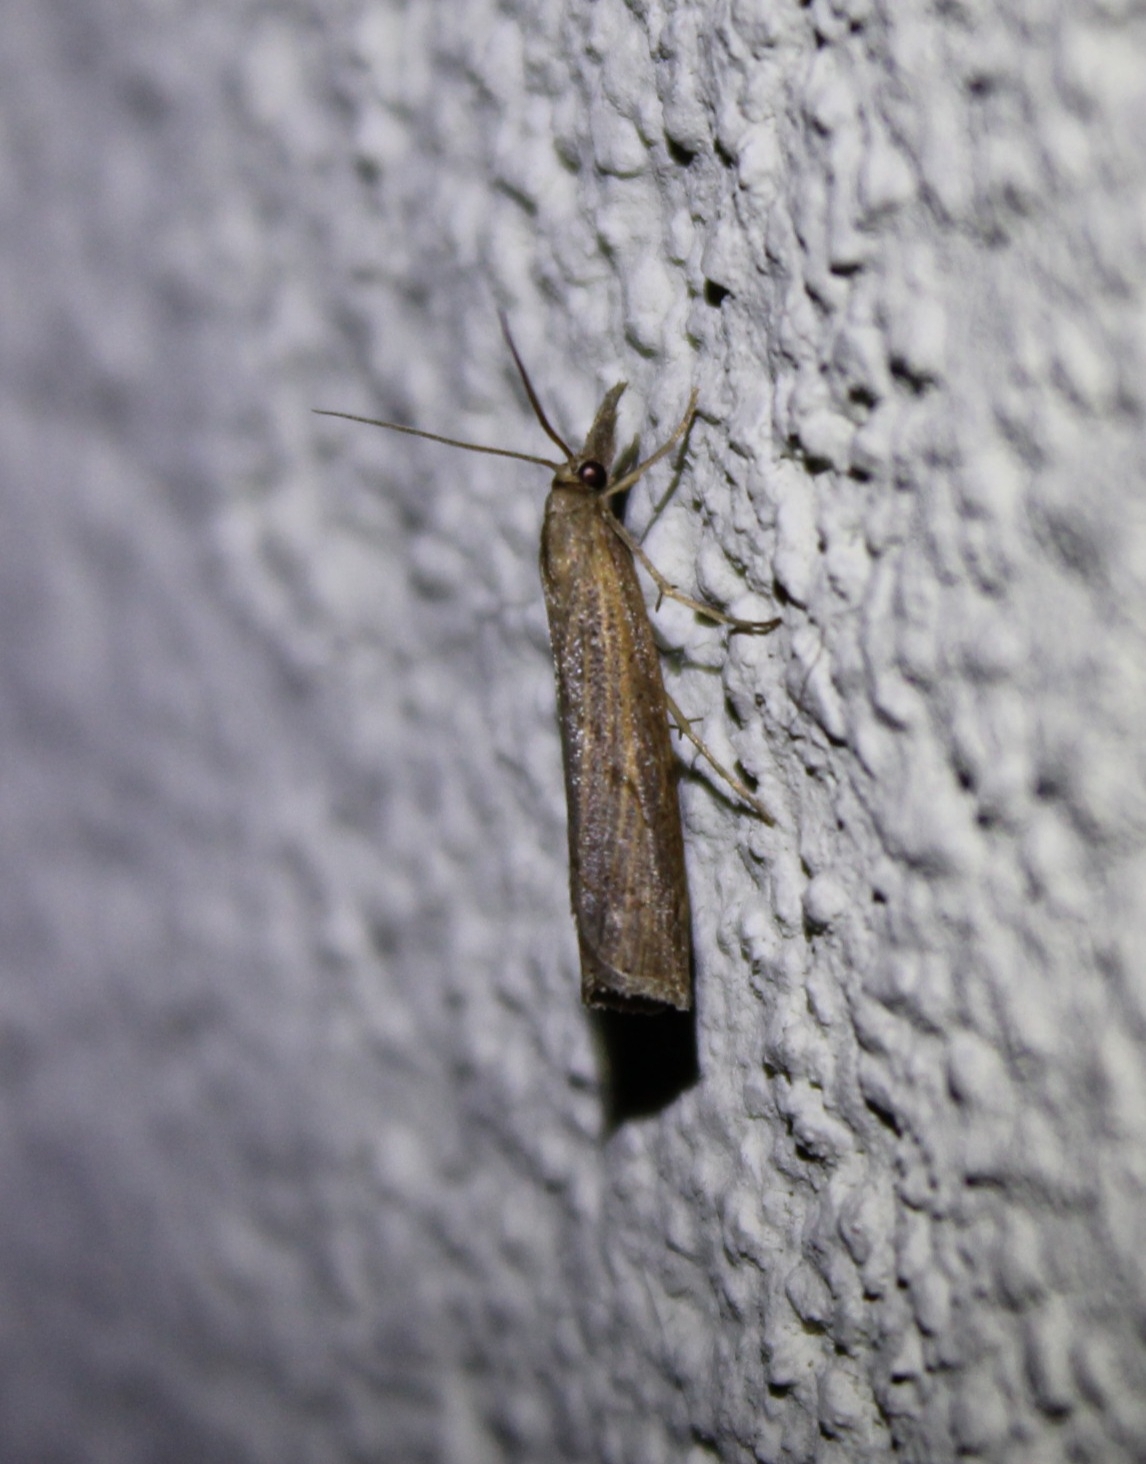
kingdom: Animalia
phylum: Arthropoda
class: Insecta
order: Lepidoptera
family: Crambidae
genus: Pediasia
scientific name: Pediasia contaminella
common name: Waste grass-veneer
